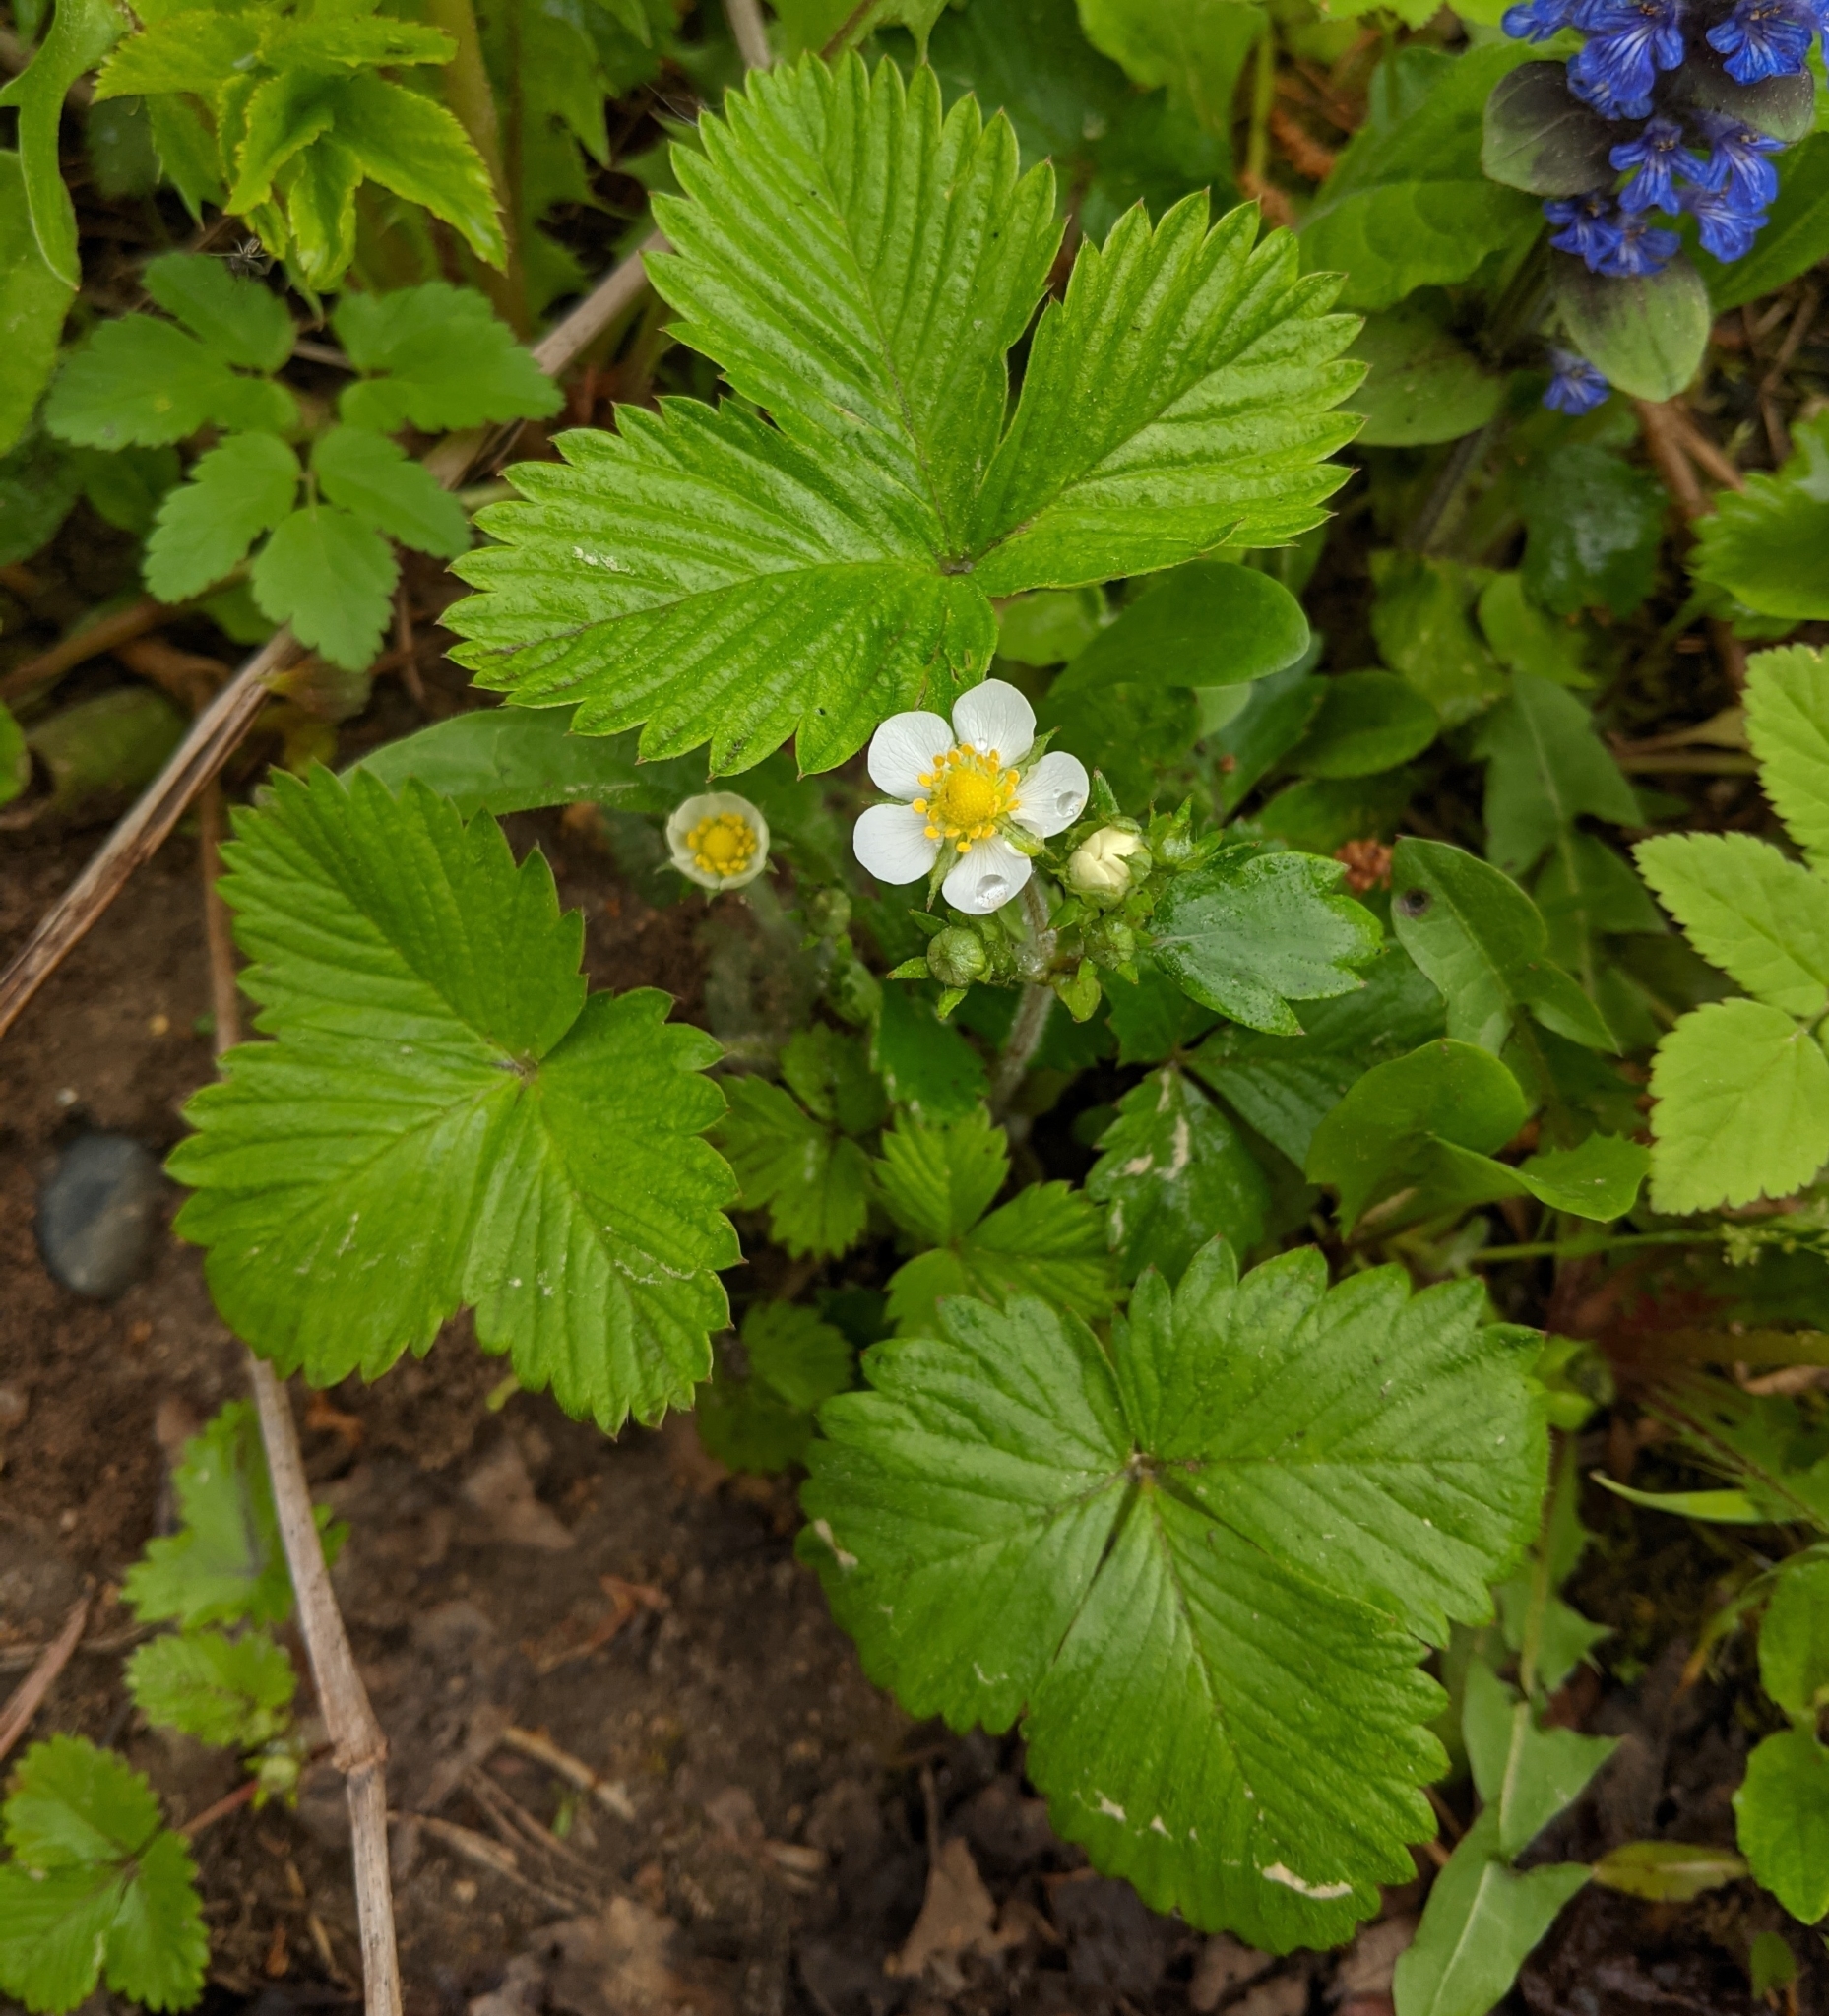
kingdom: Plantae
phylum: Tracheophyta
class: Magnoliopsida
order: Rosales
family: Rosaceae
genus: Fragaria
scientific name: Fragaria vesca
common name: Wild strawberry
